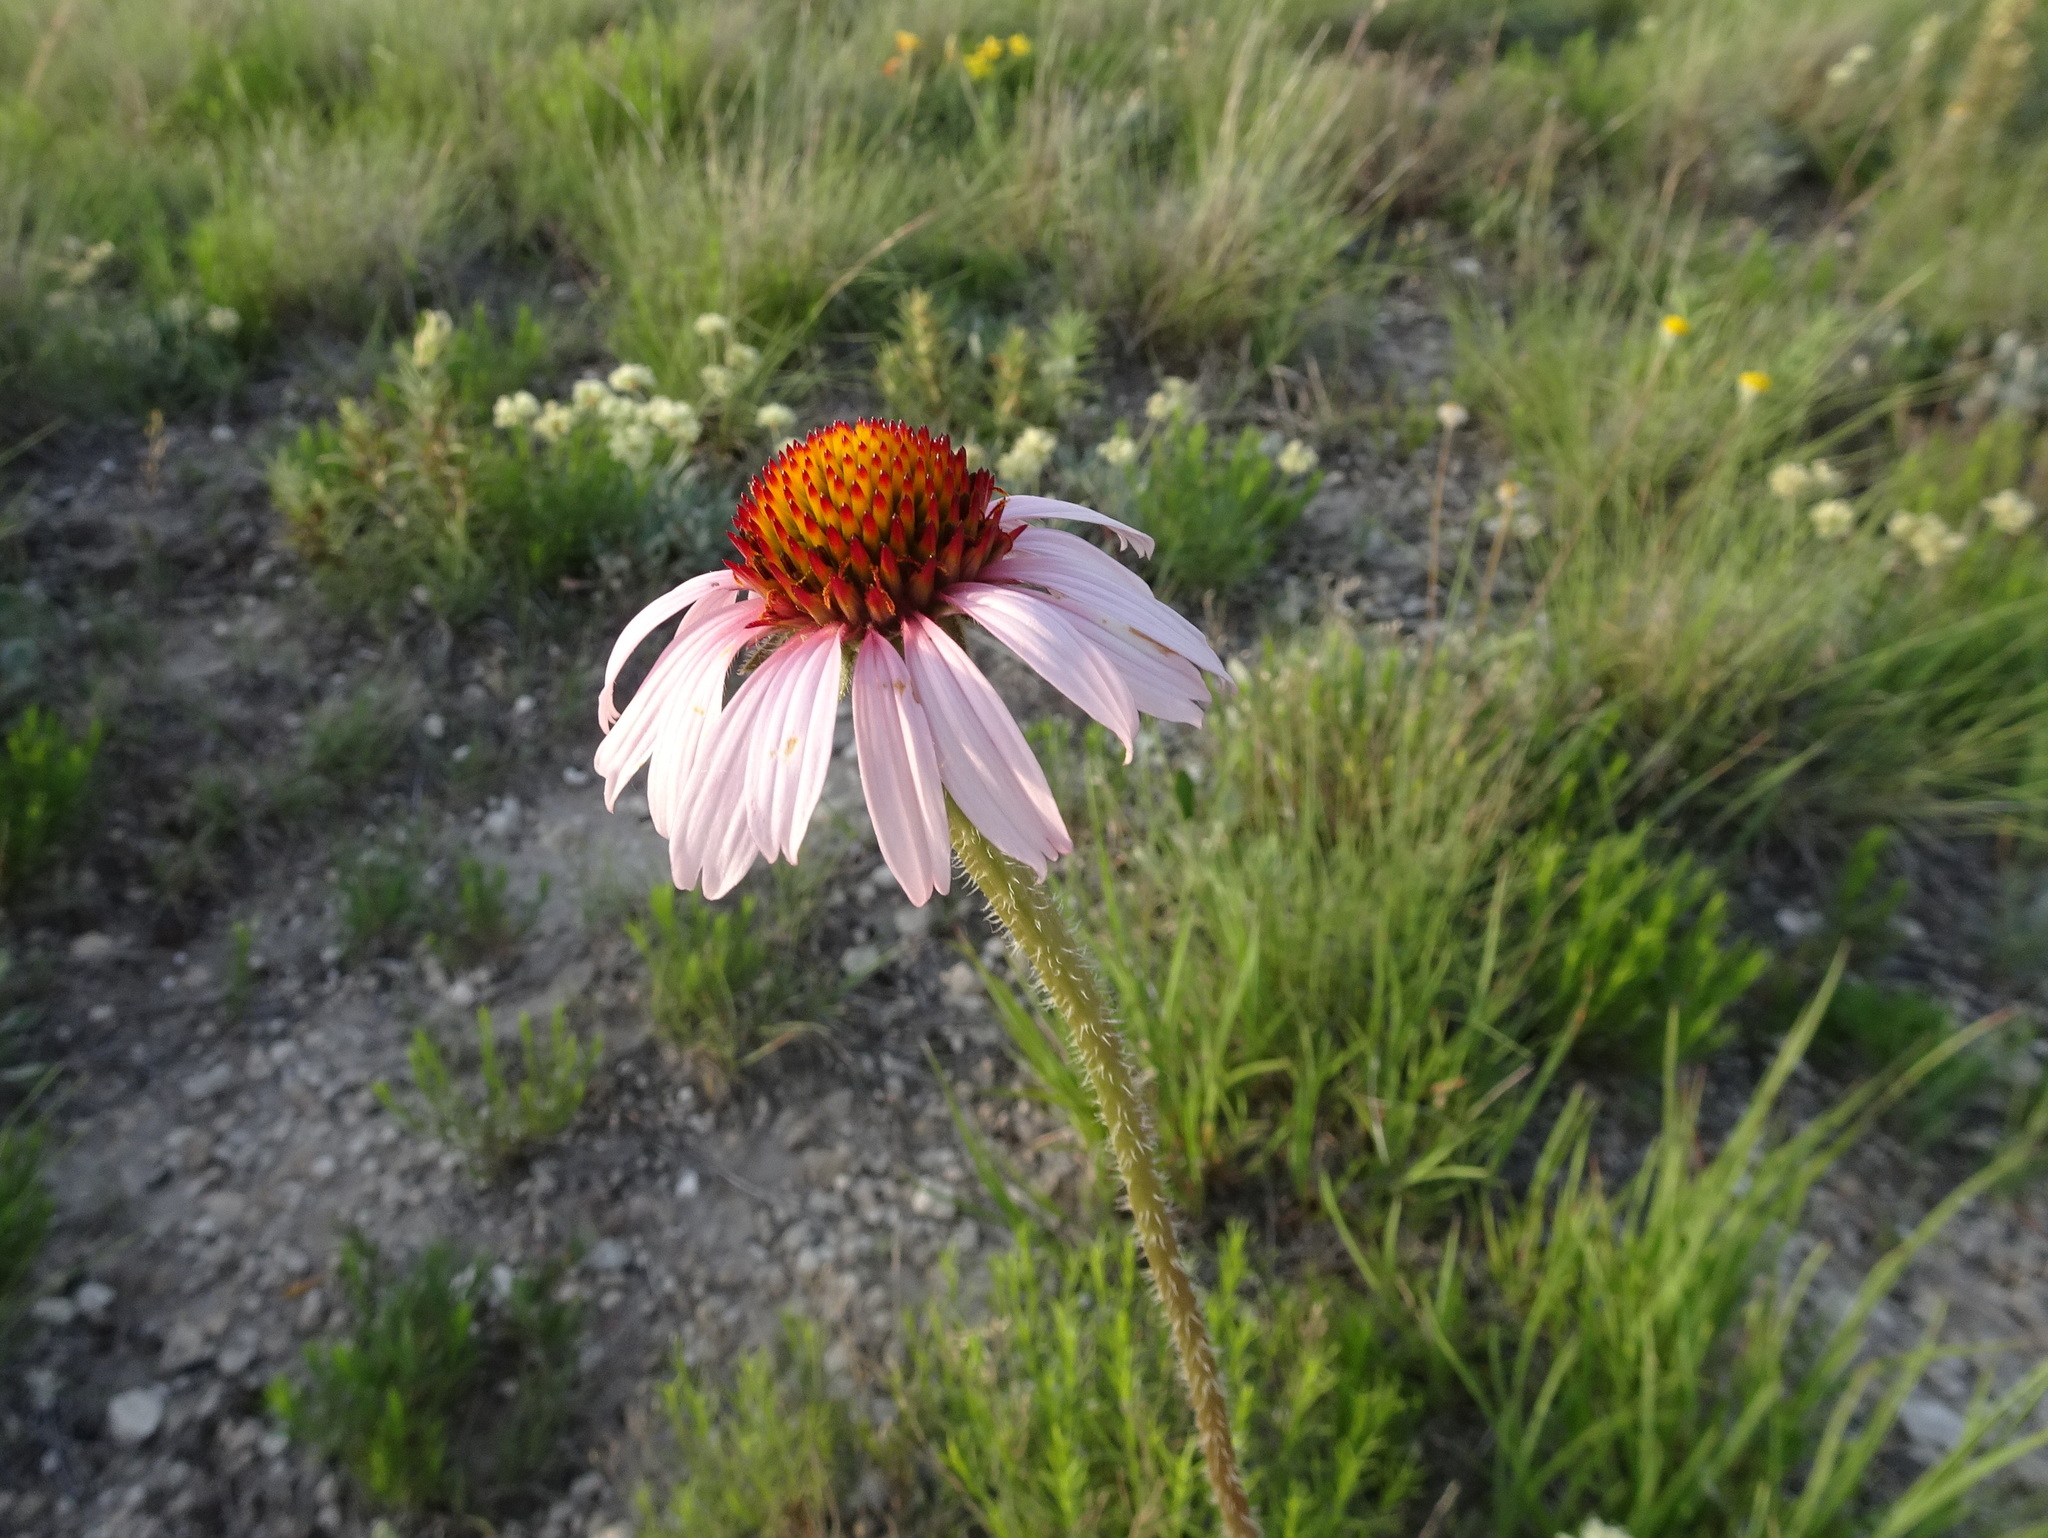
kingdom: Plantae
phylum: Tracheophyta
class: Magnoliopsida
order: Asterales
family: Asteraceae
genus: Echinacea
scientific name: Echinacea angustifolia
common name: Black-sampson echinacea
